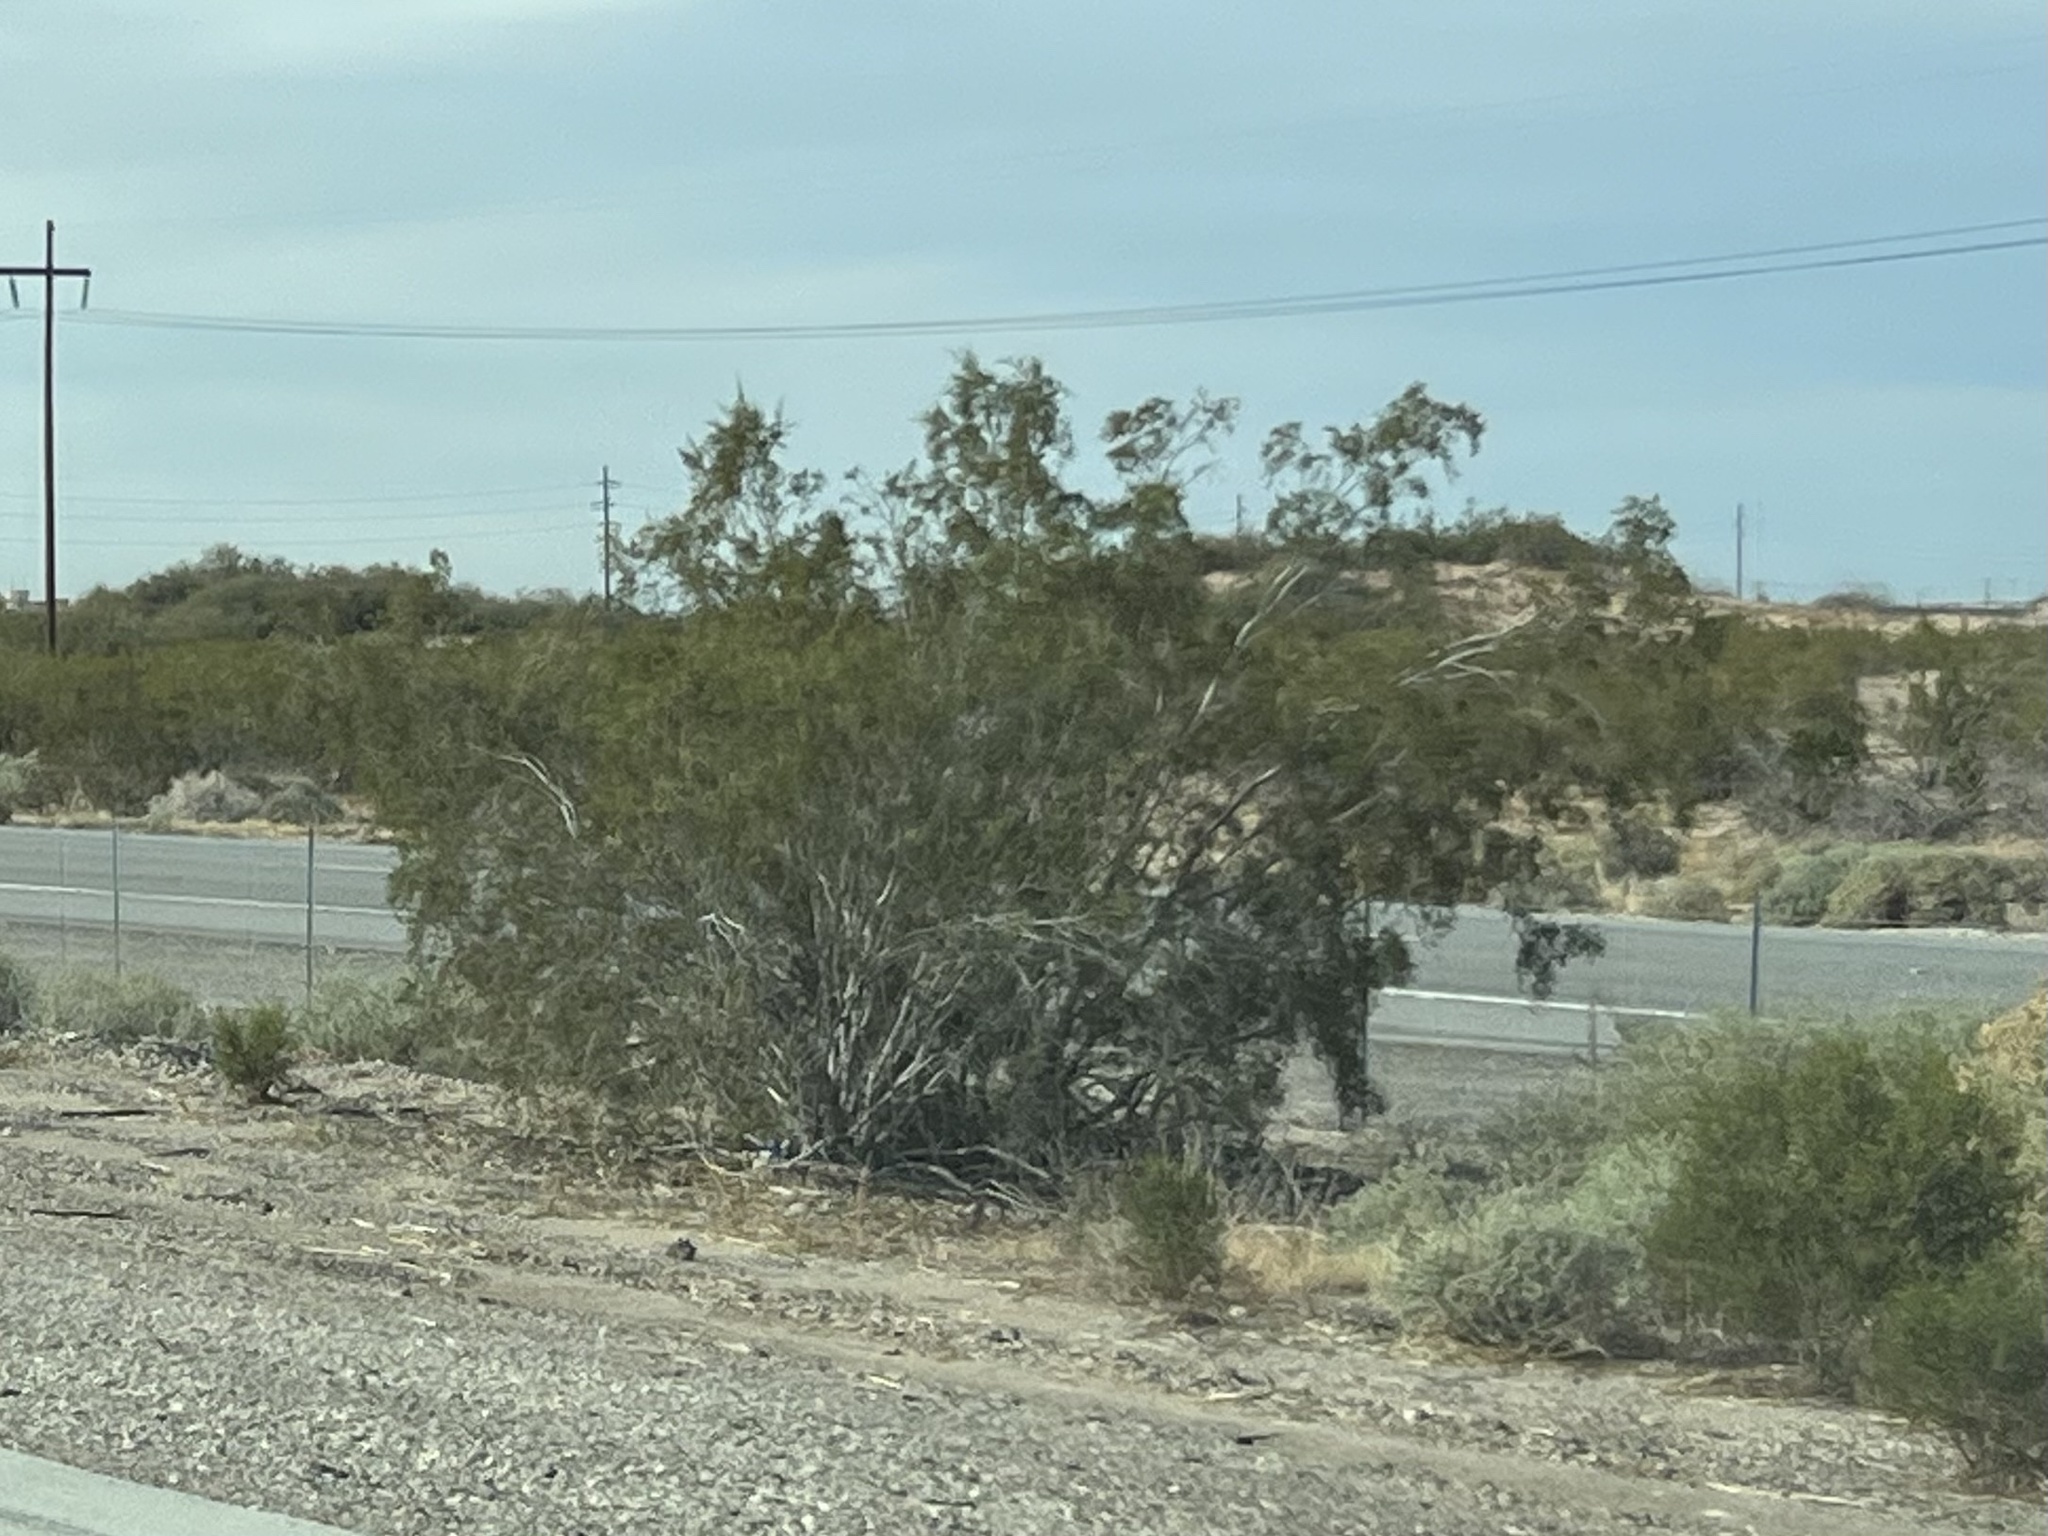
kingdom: Plantae
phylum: Tracheophyta
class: Magnoliopsida
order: Zygophyllales
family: Zygophyllaceae
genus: Larrea
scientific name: Larrea tridentata
